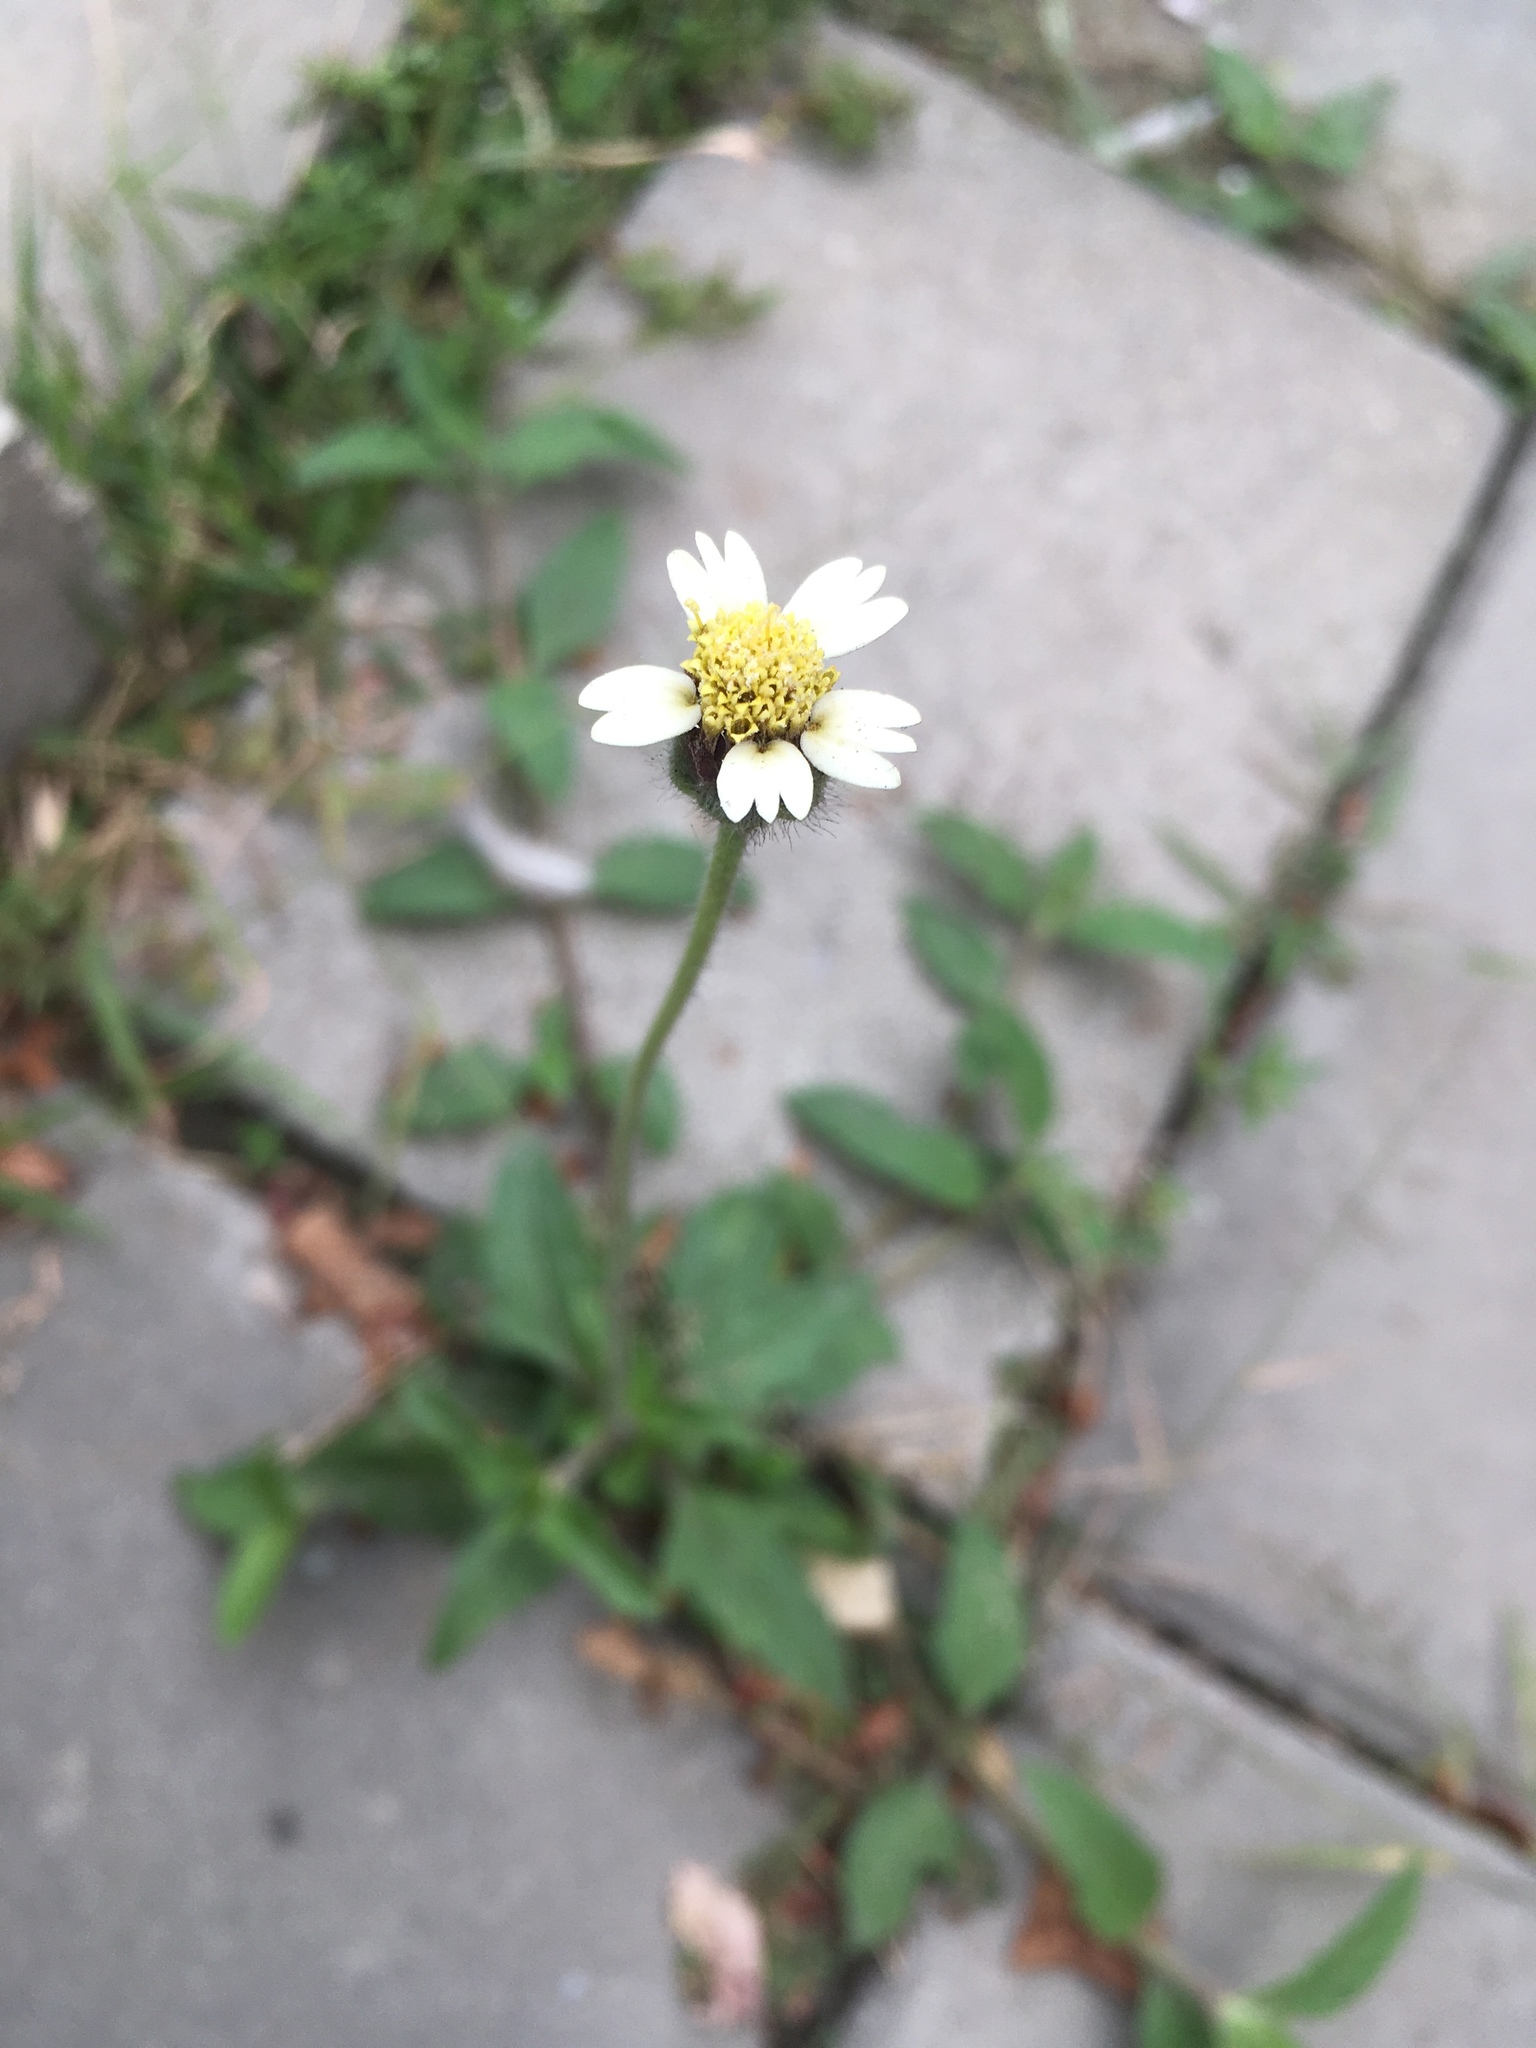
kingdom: Plantae
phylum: Tracheophyta
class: Magnoliopsida
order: Asterales
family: Asteraceae
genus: Tridax
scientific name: Tridax procumbens
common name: Coatbuttons
